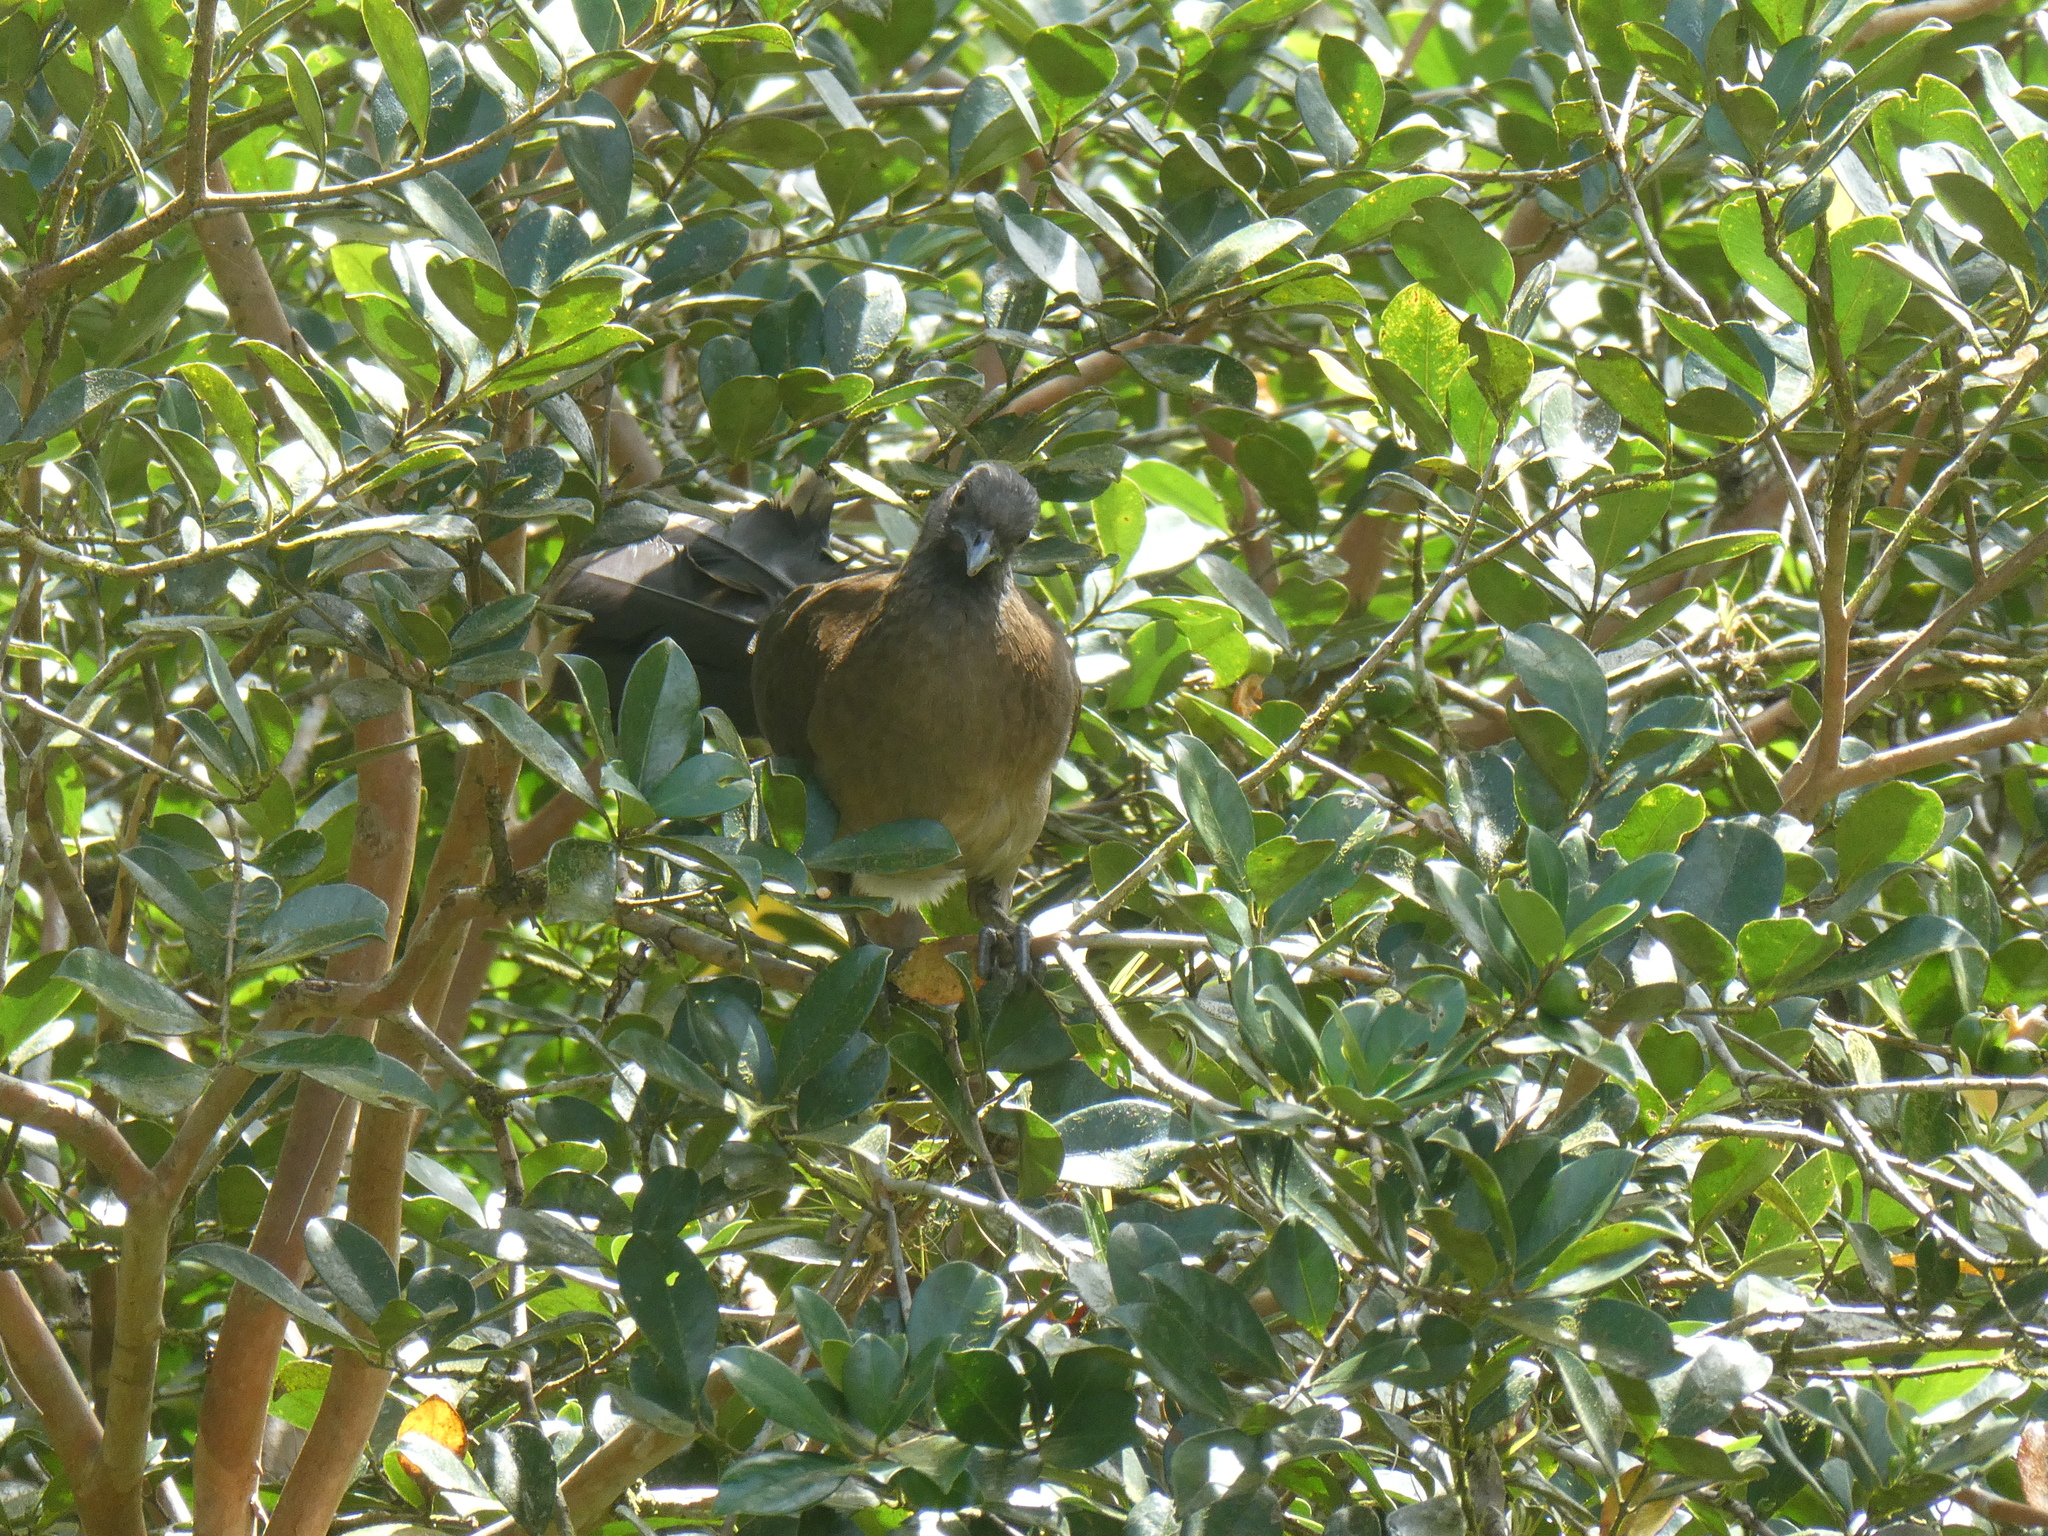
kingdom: Animalia
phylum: Chordata
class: Aves
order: Galliformes
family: Cracidae
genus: Ortalis
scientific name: Ortalis cinereiceps
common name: Grey-headed chachalaca
